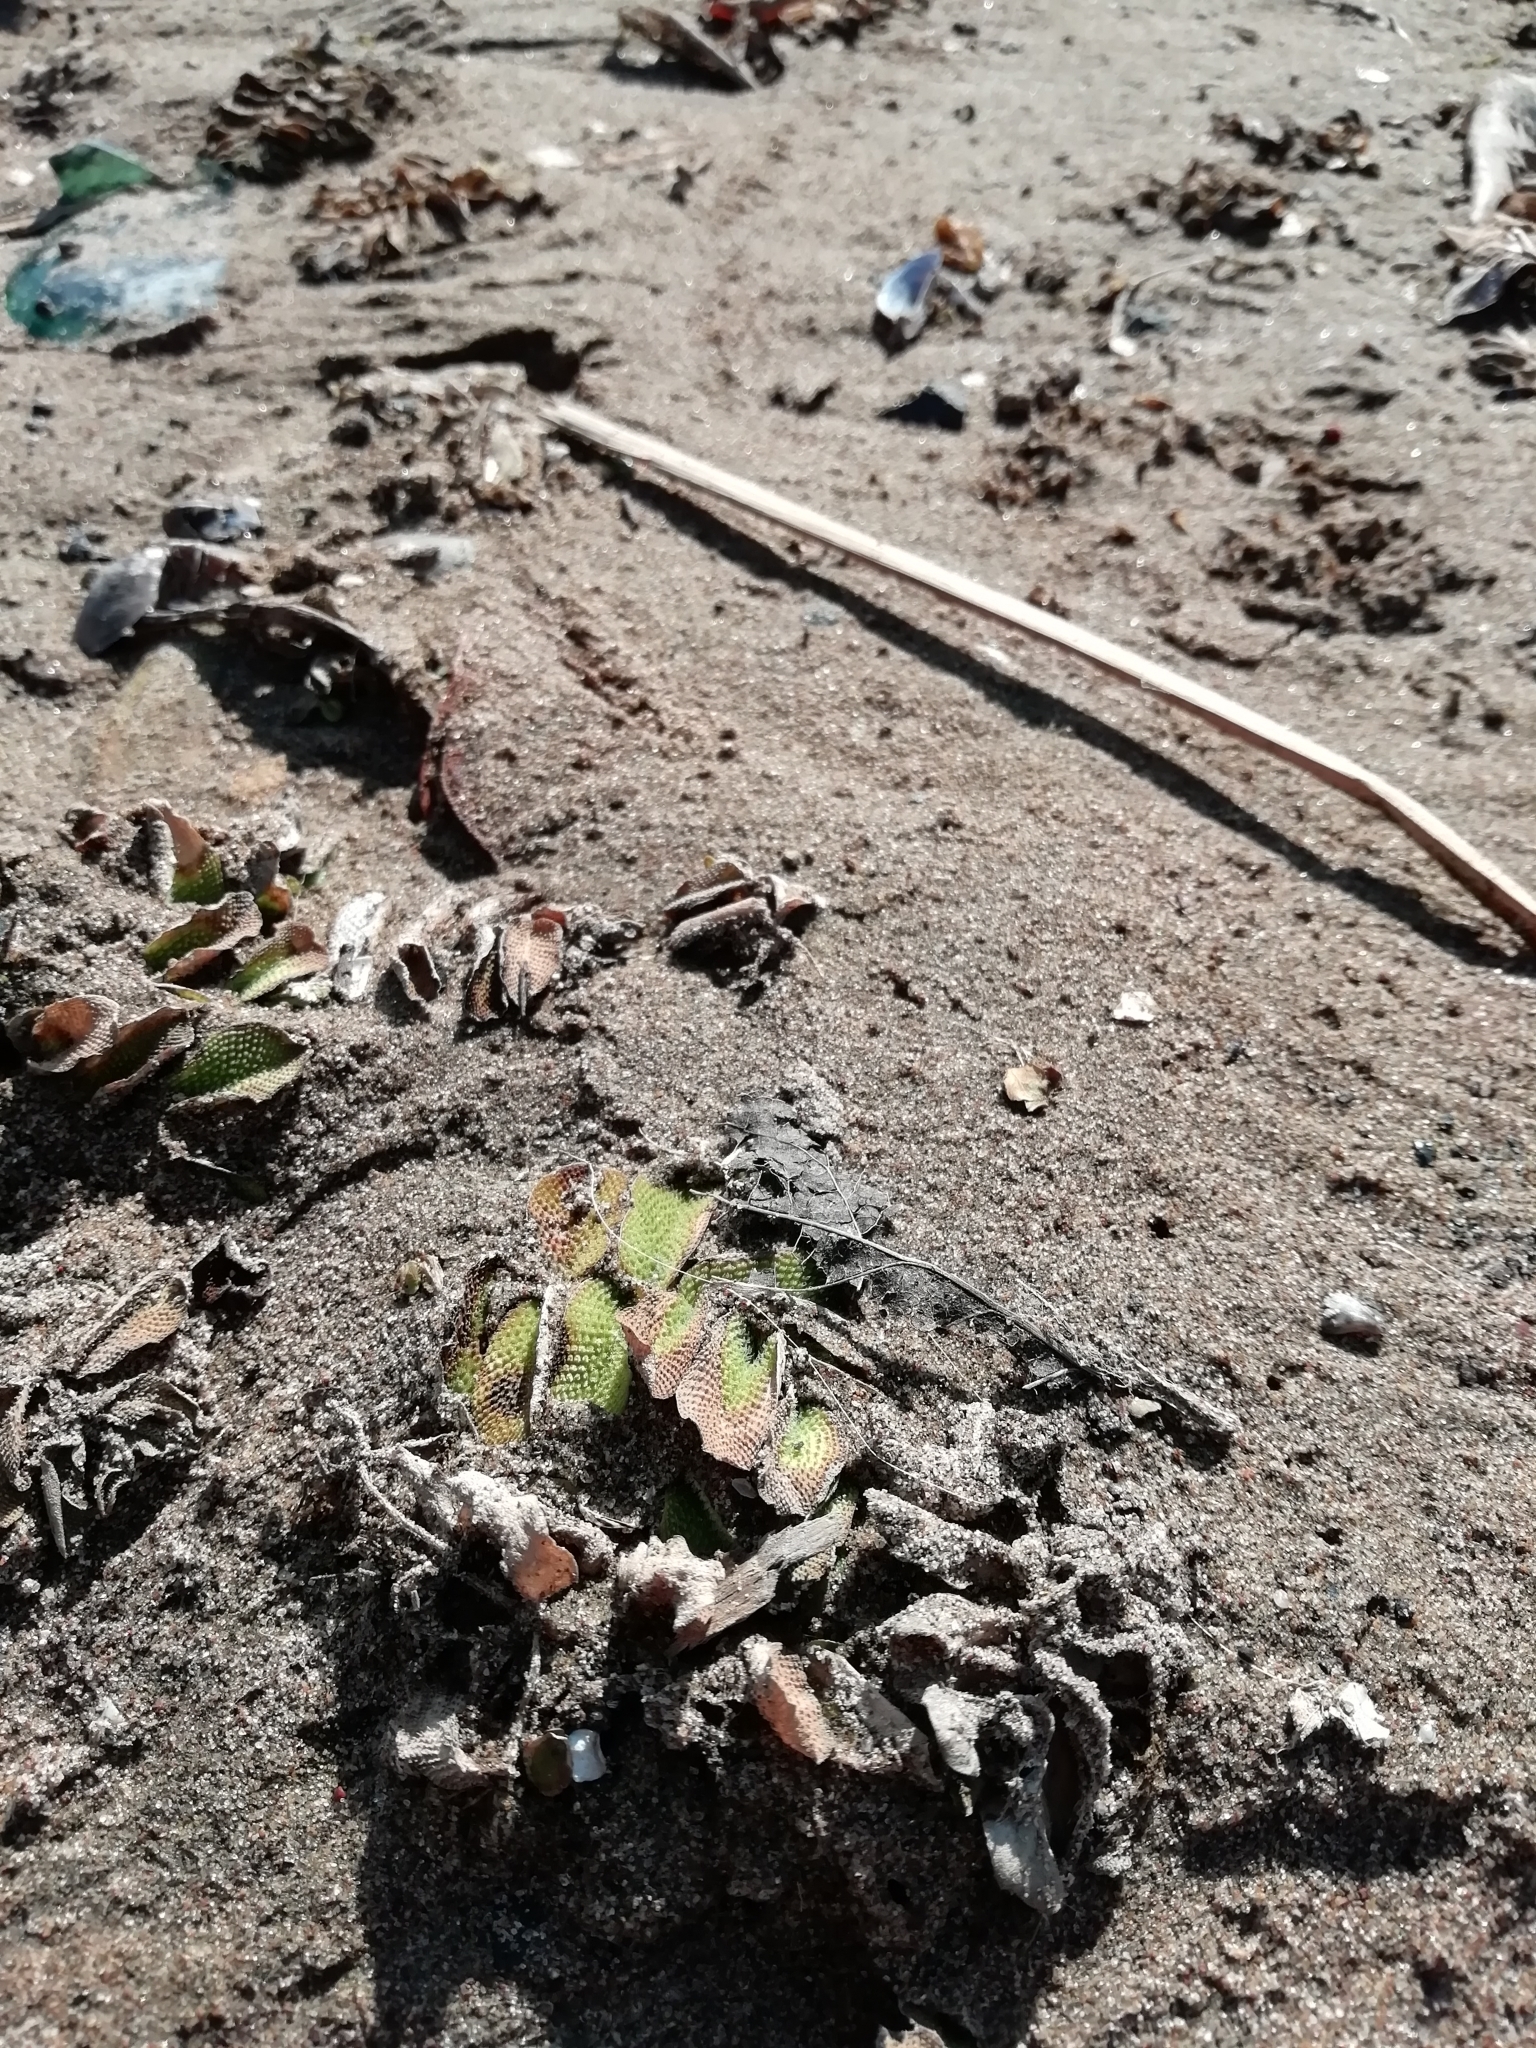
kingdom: Plantae
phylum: Tracheophyta
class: Polypodiopsida
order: Salviniales
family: Salviniaceae
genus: Salvinia
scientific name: Salvinia natans
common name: Floating fern
